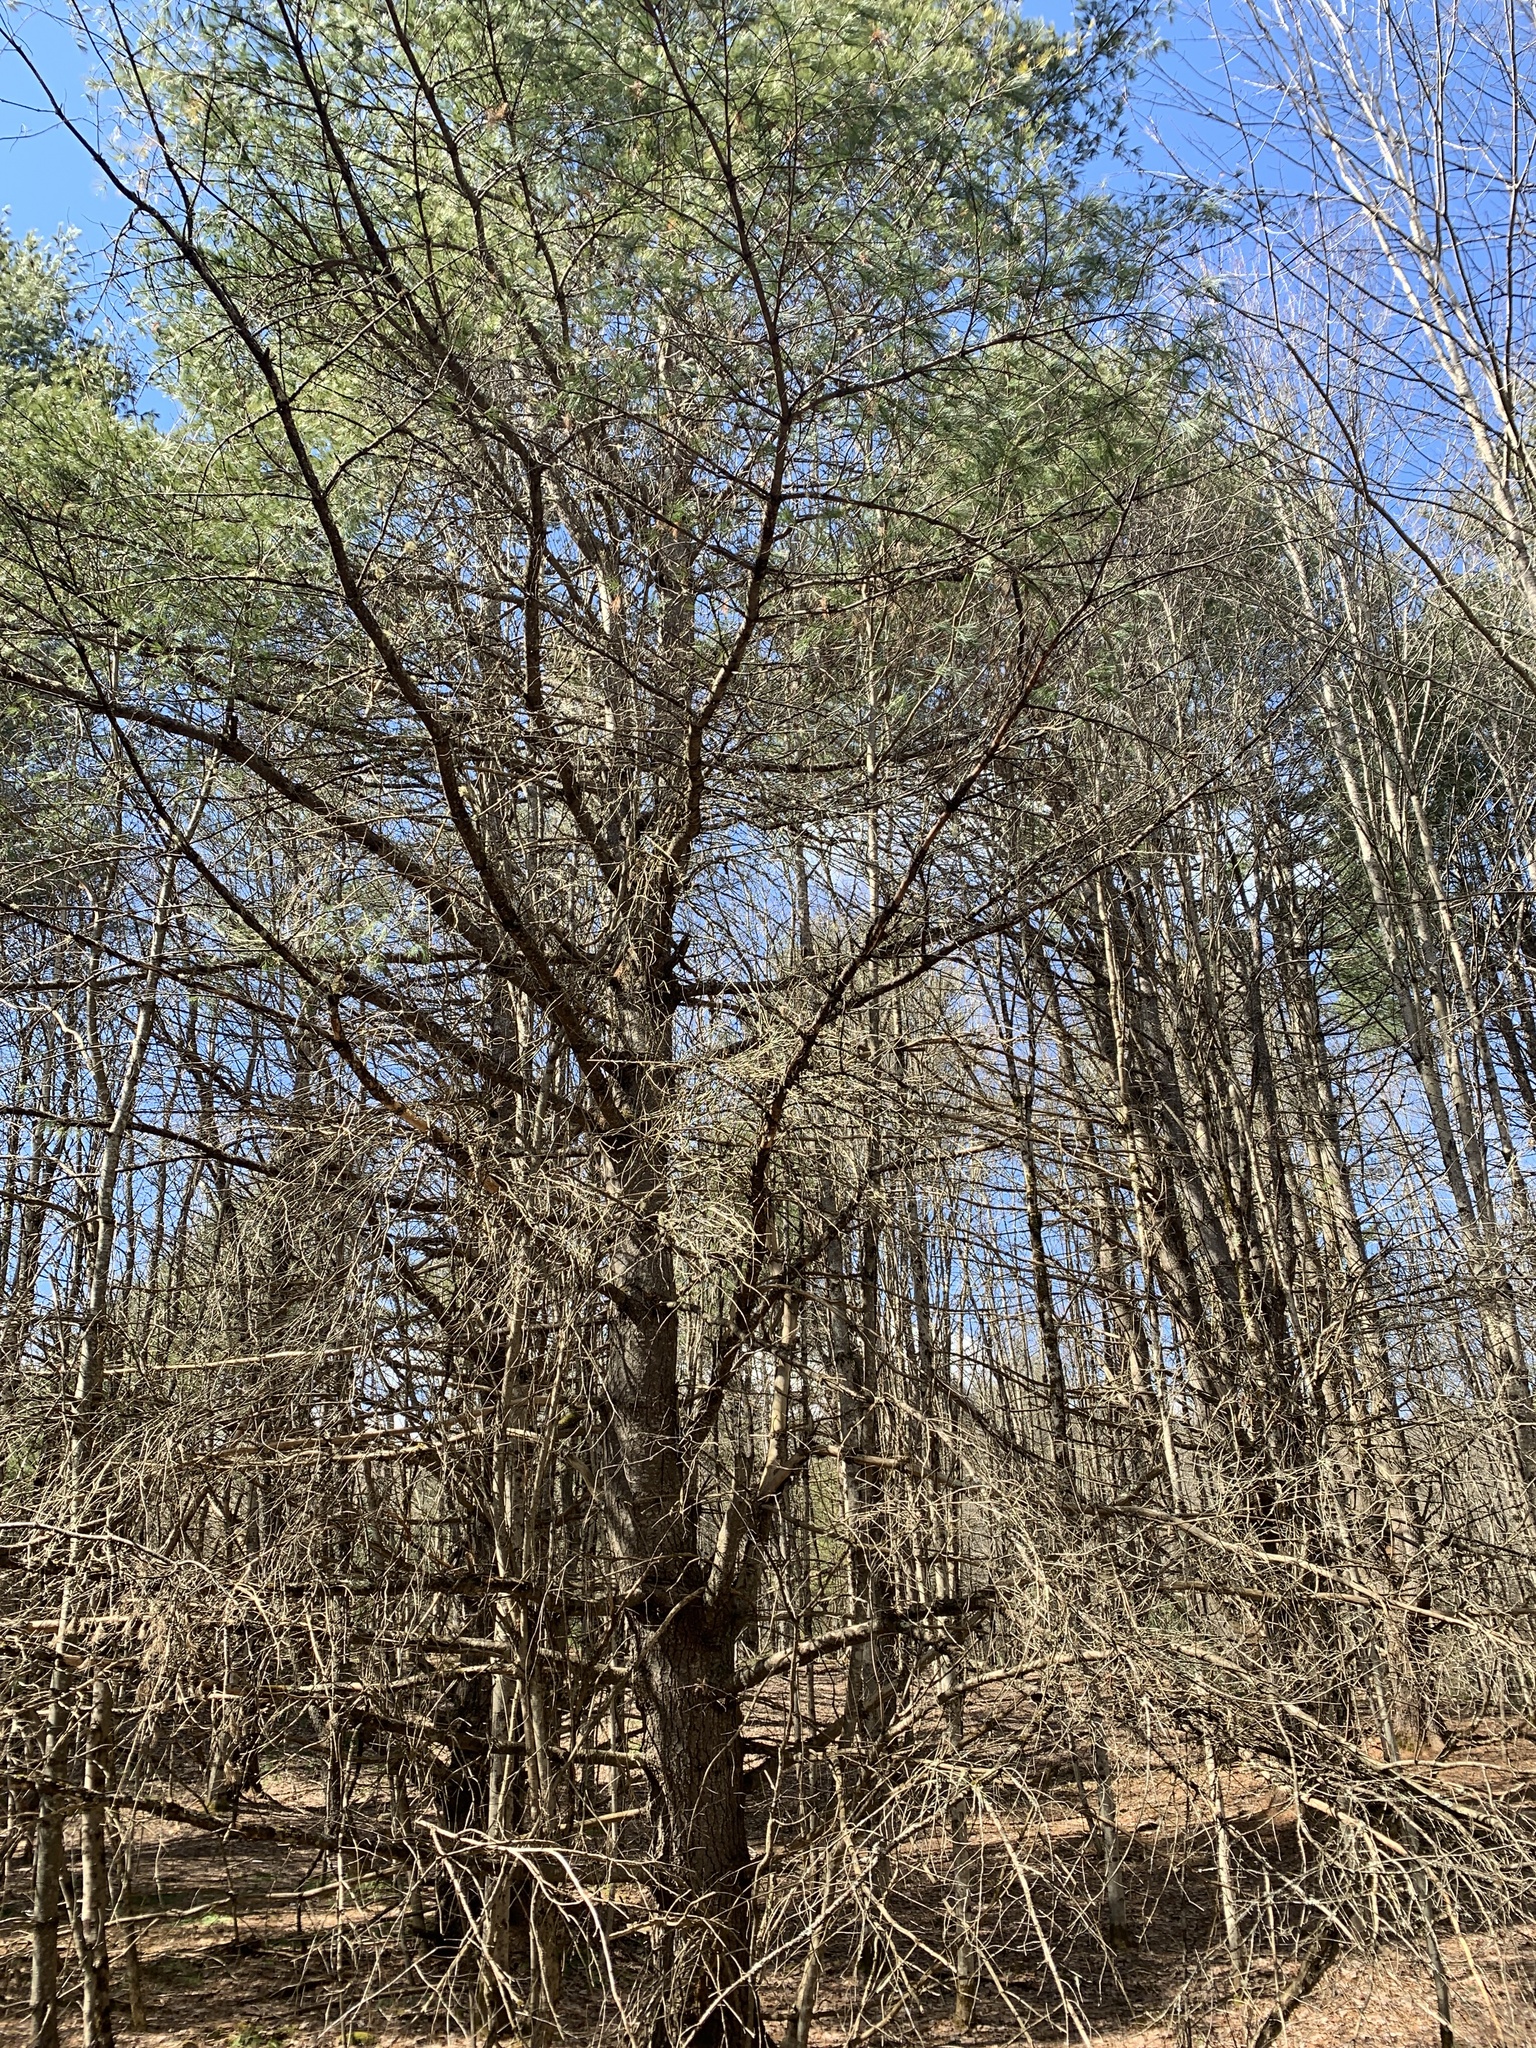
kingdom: Plantae
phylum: Tracheophyta
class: Pinopsida
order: Pinales
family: Pinaceae
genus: Pinus
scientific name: Pinus strobus
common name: Weymouth pine
